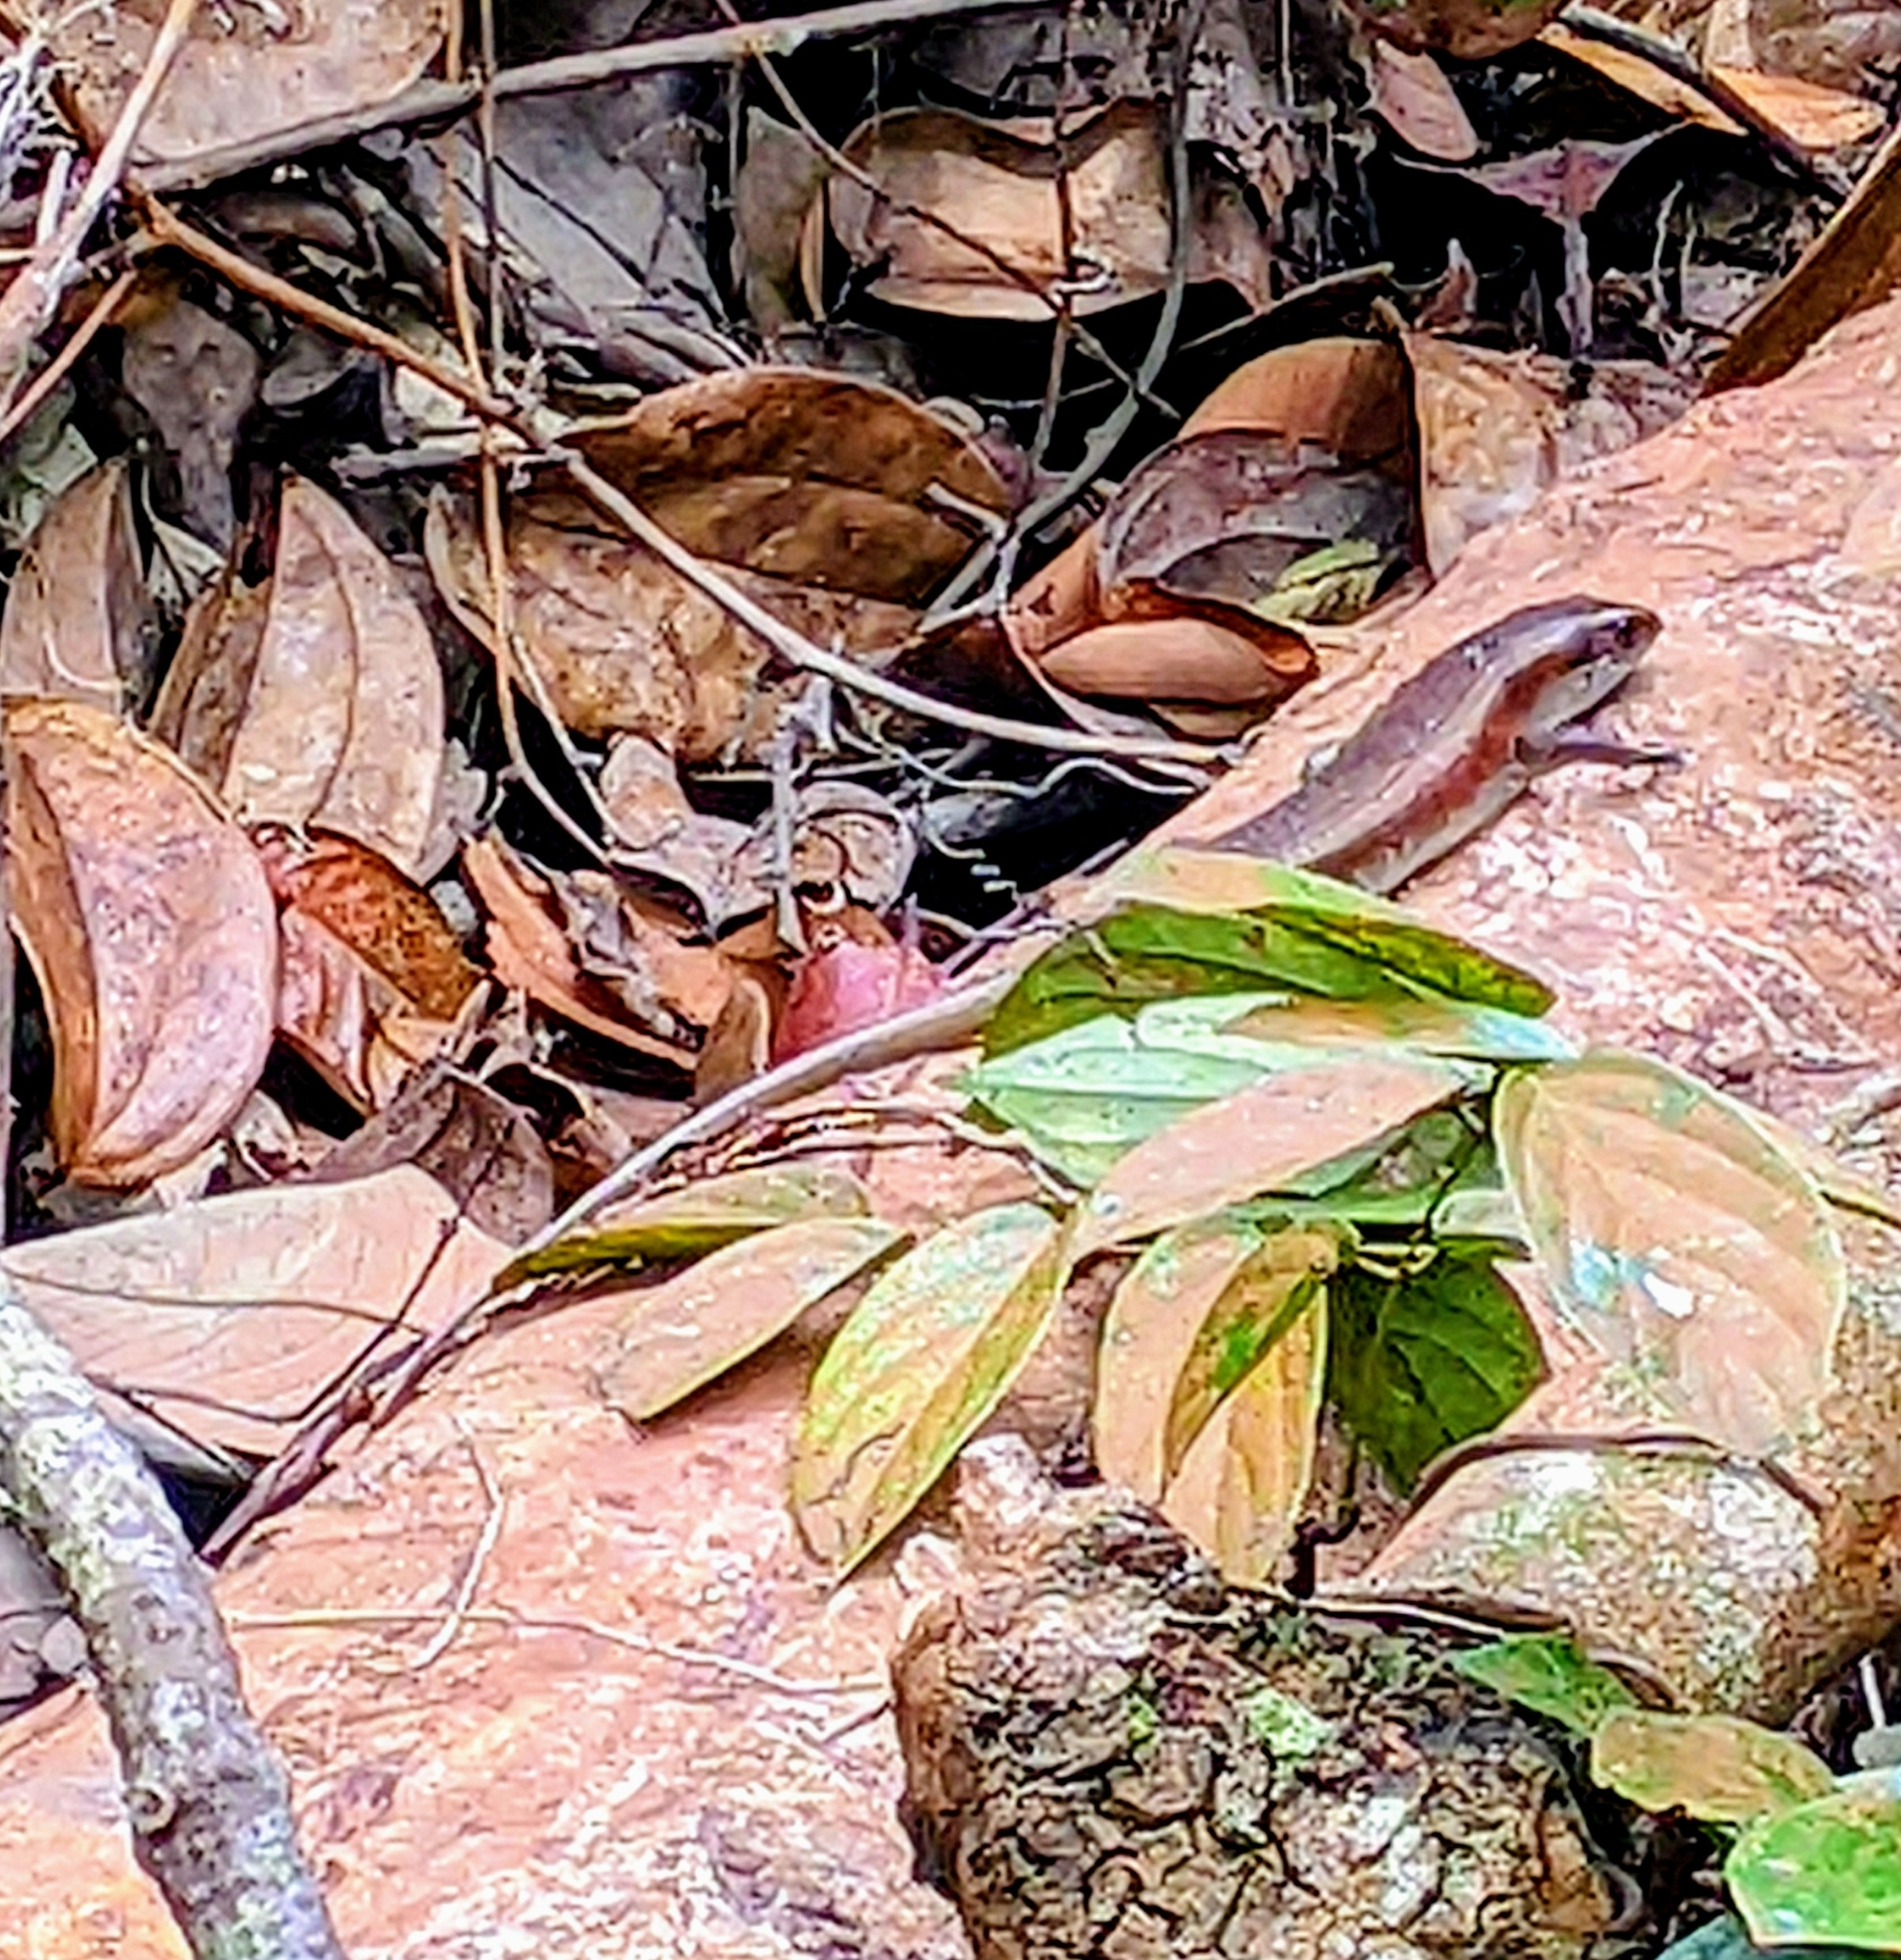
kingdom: Animalia
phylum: Chordata
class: Squamata
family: Scincidae
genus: Eutropis
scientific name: Eutropis multifasciata
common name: Common mabuya
